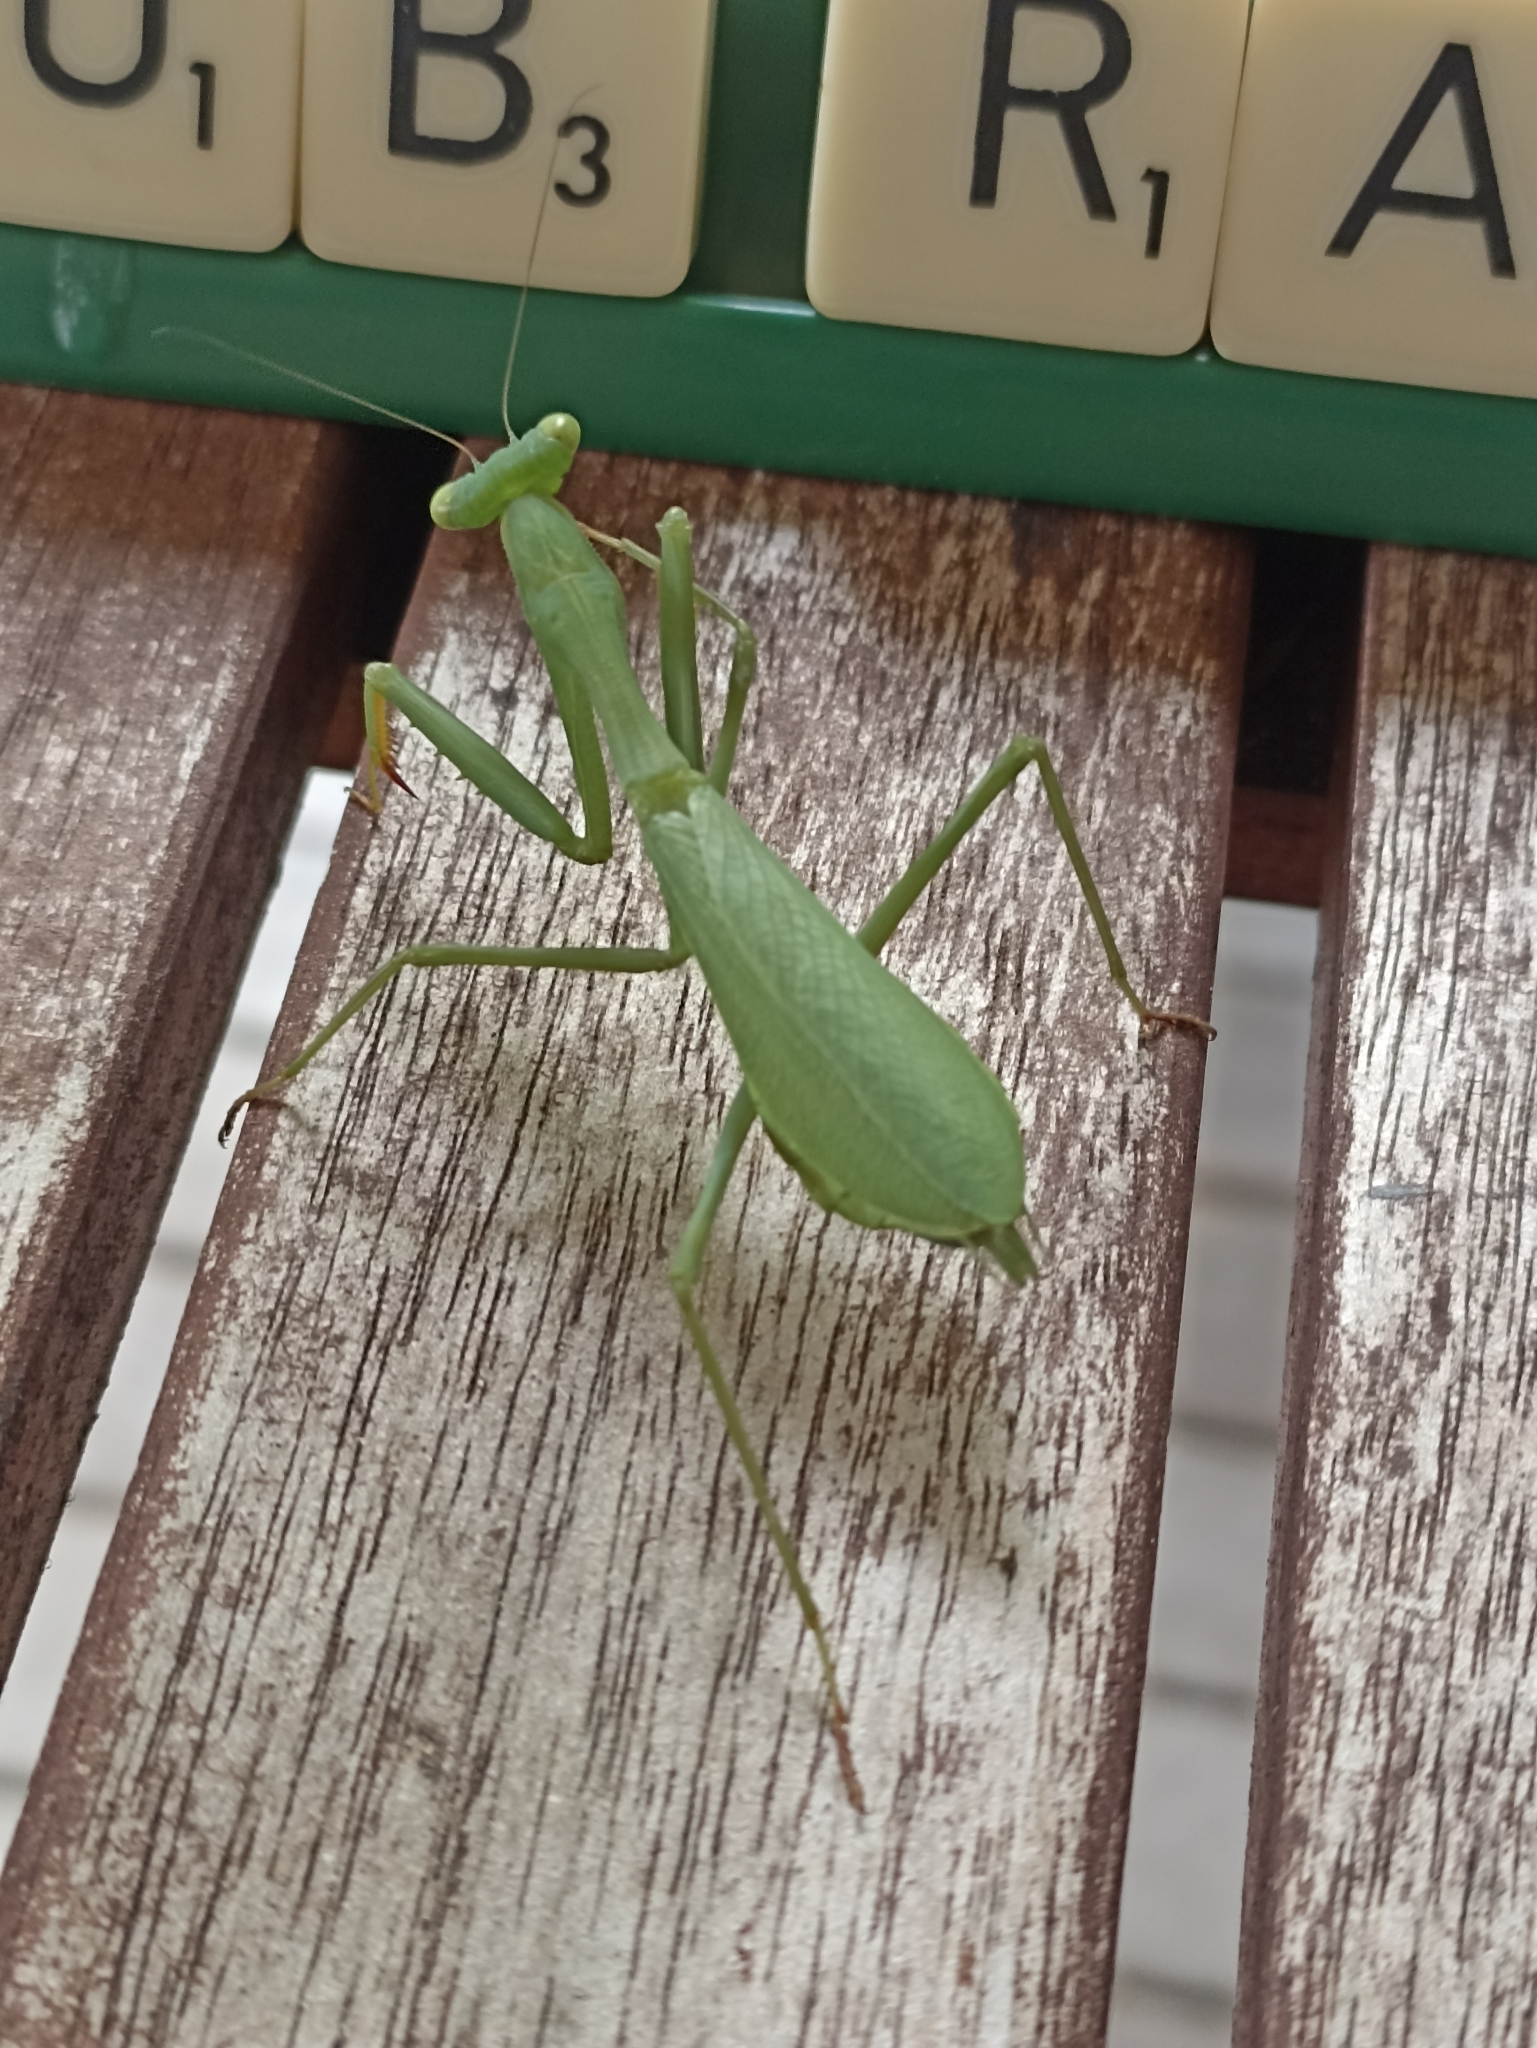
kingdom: Animalia
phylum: Arthropoda
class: Insecta
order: Mantodea
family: Miomantidae
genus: Miomantis
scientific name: Miomantis caffra
